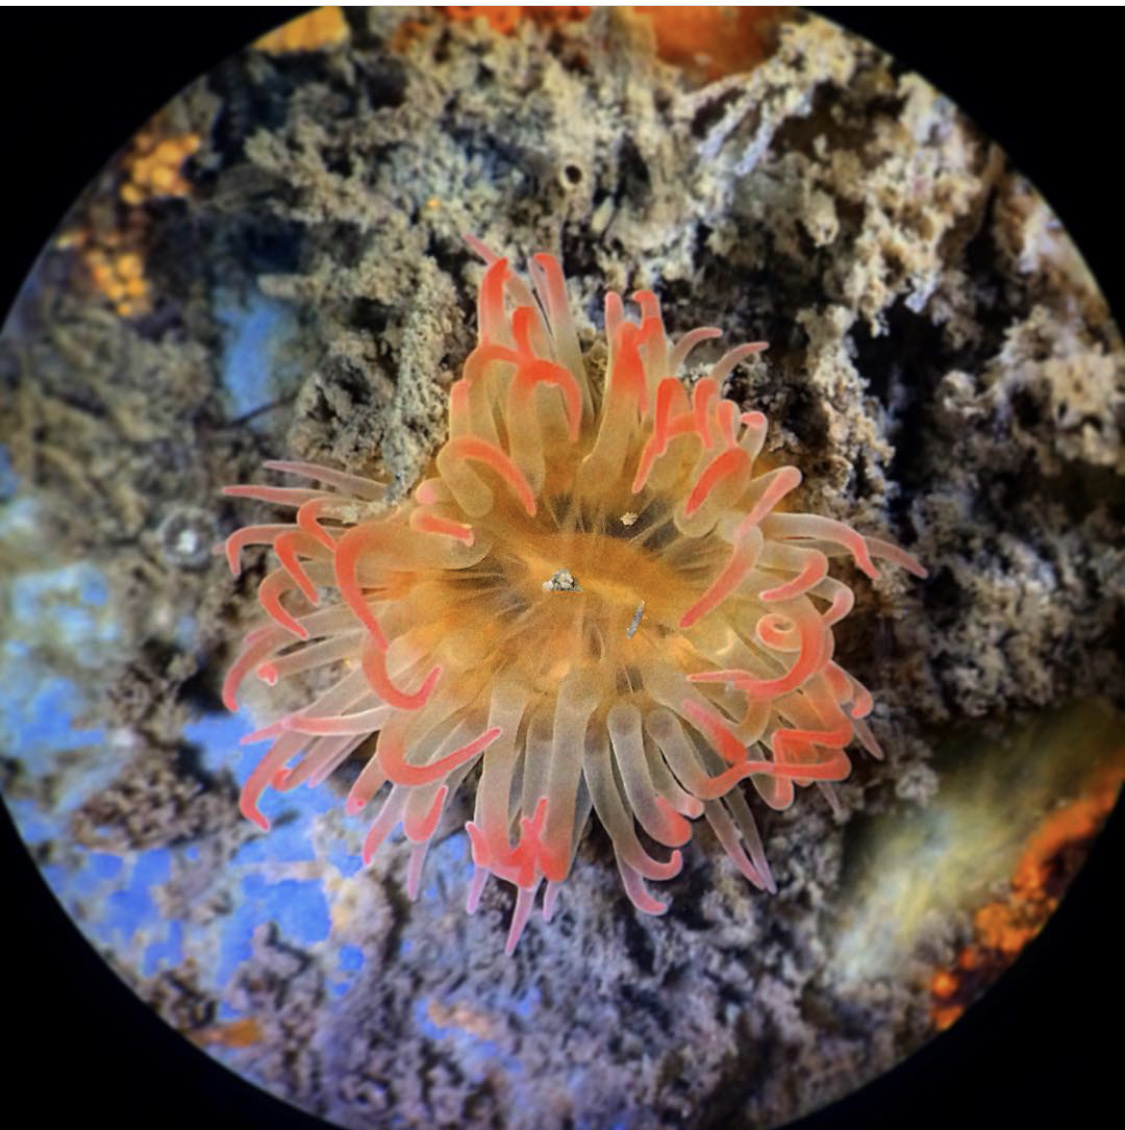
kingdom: Animalia
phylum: Cnidaria
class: Anthozoa
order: Actiniaria
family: Aiptasiidae
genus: Aiptasiogeton
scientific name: Aiptasiogeton eruptaurantia
